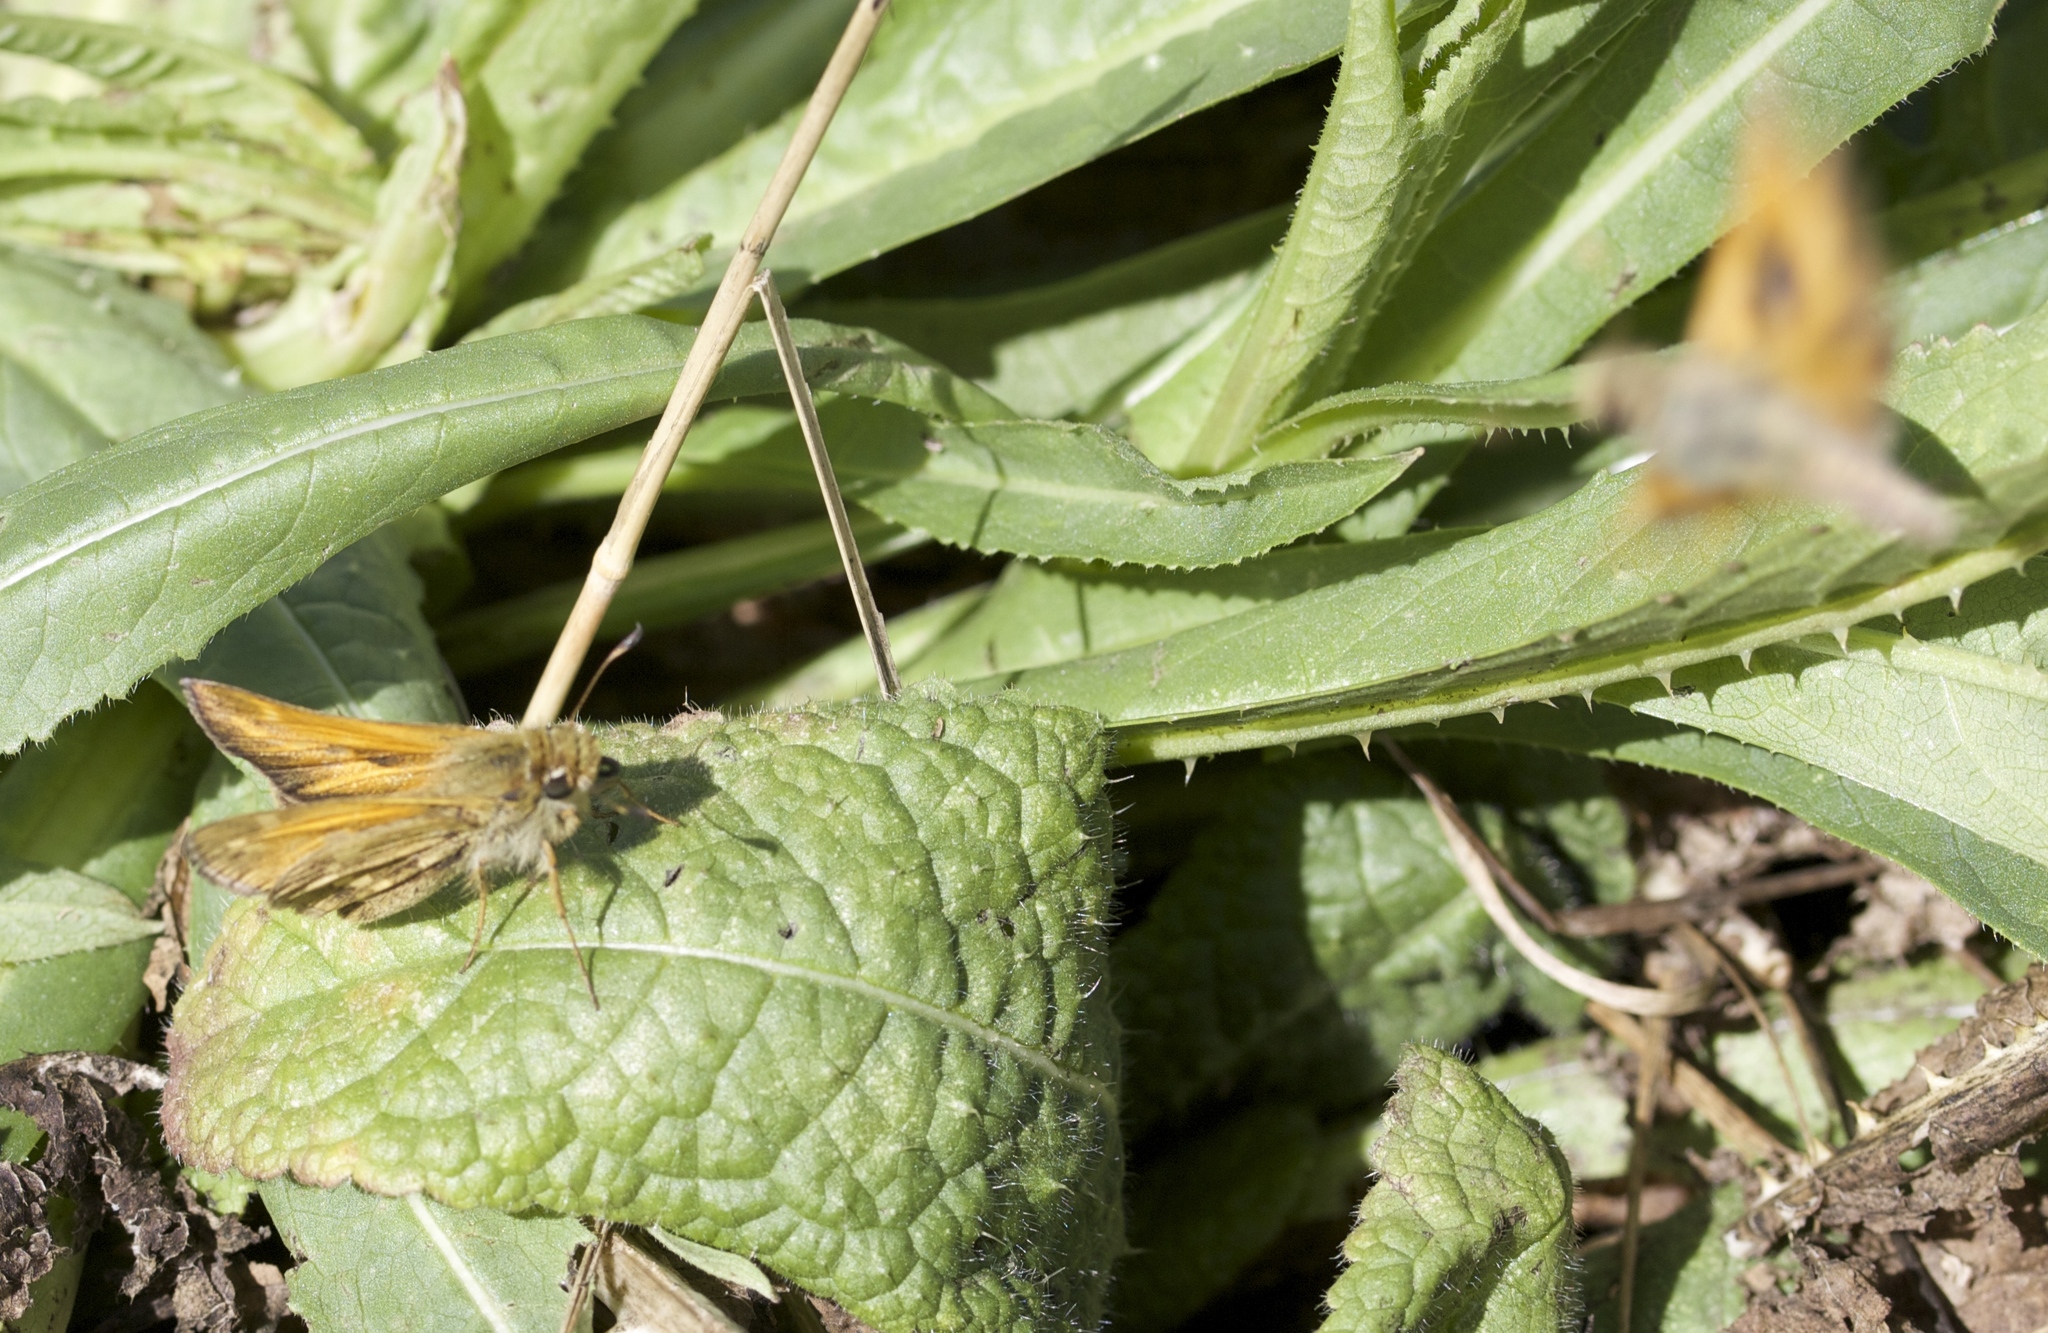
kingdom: Animalia
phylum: Arthropoda
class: Insecta
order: Lepidoptera
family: Hesperiidae
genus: Atalopedes
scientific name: Atalopedes campestris
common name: Sachem
